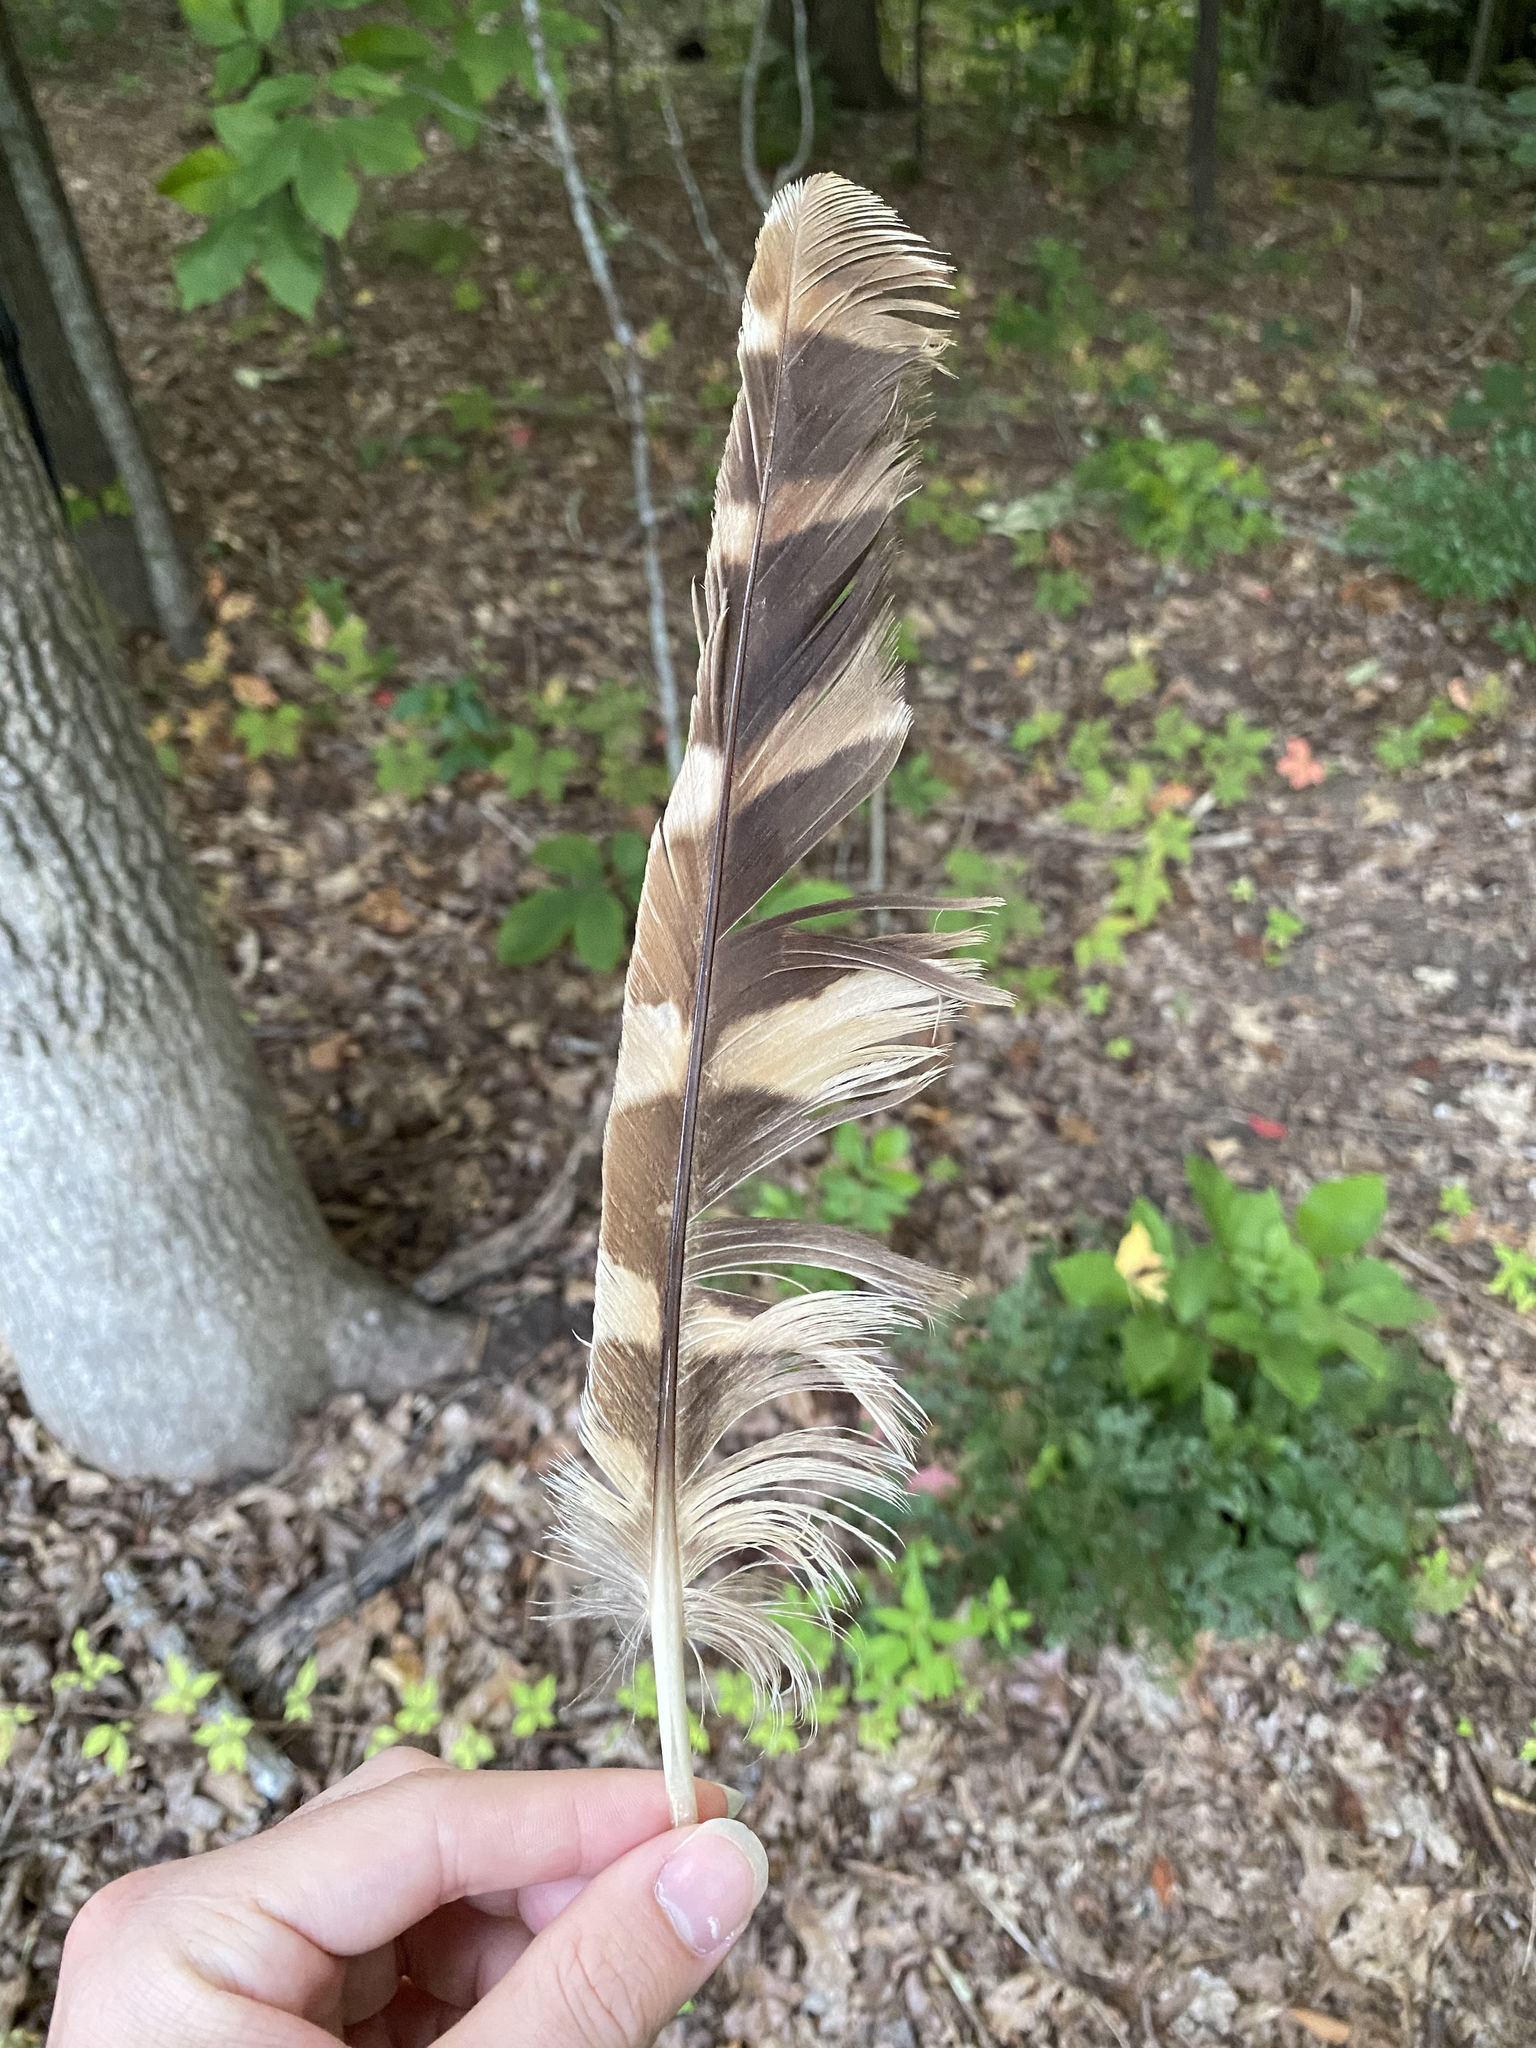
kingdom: Animalia
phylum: Chordata
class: Aves
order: Strigiformes
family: Strigidae
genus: Strix
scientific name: Strix varia
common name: Barred owl
